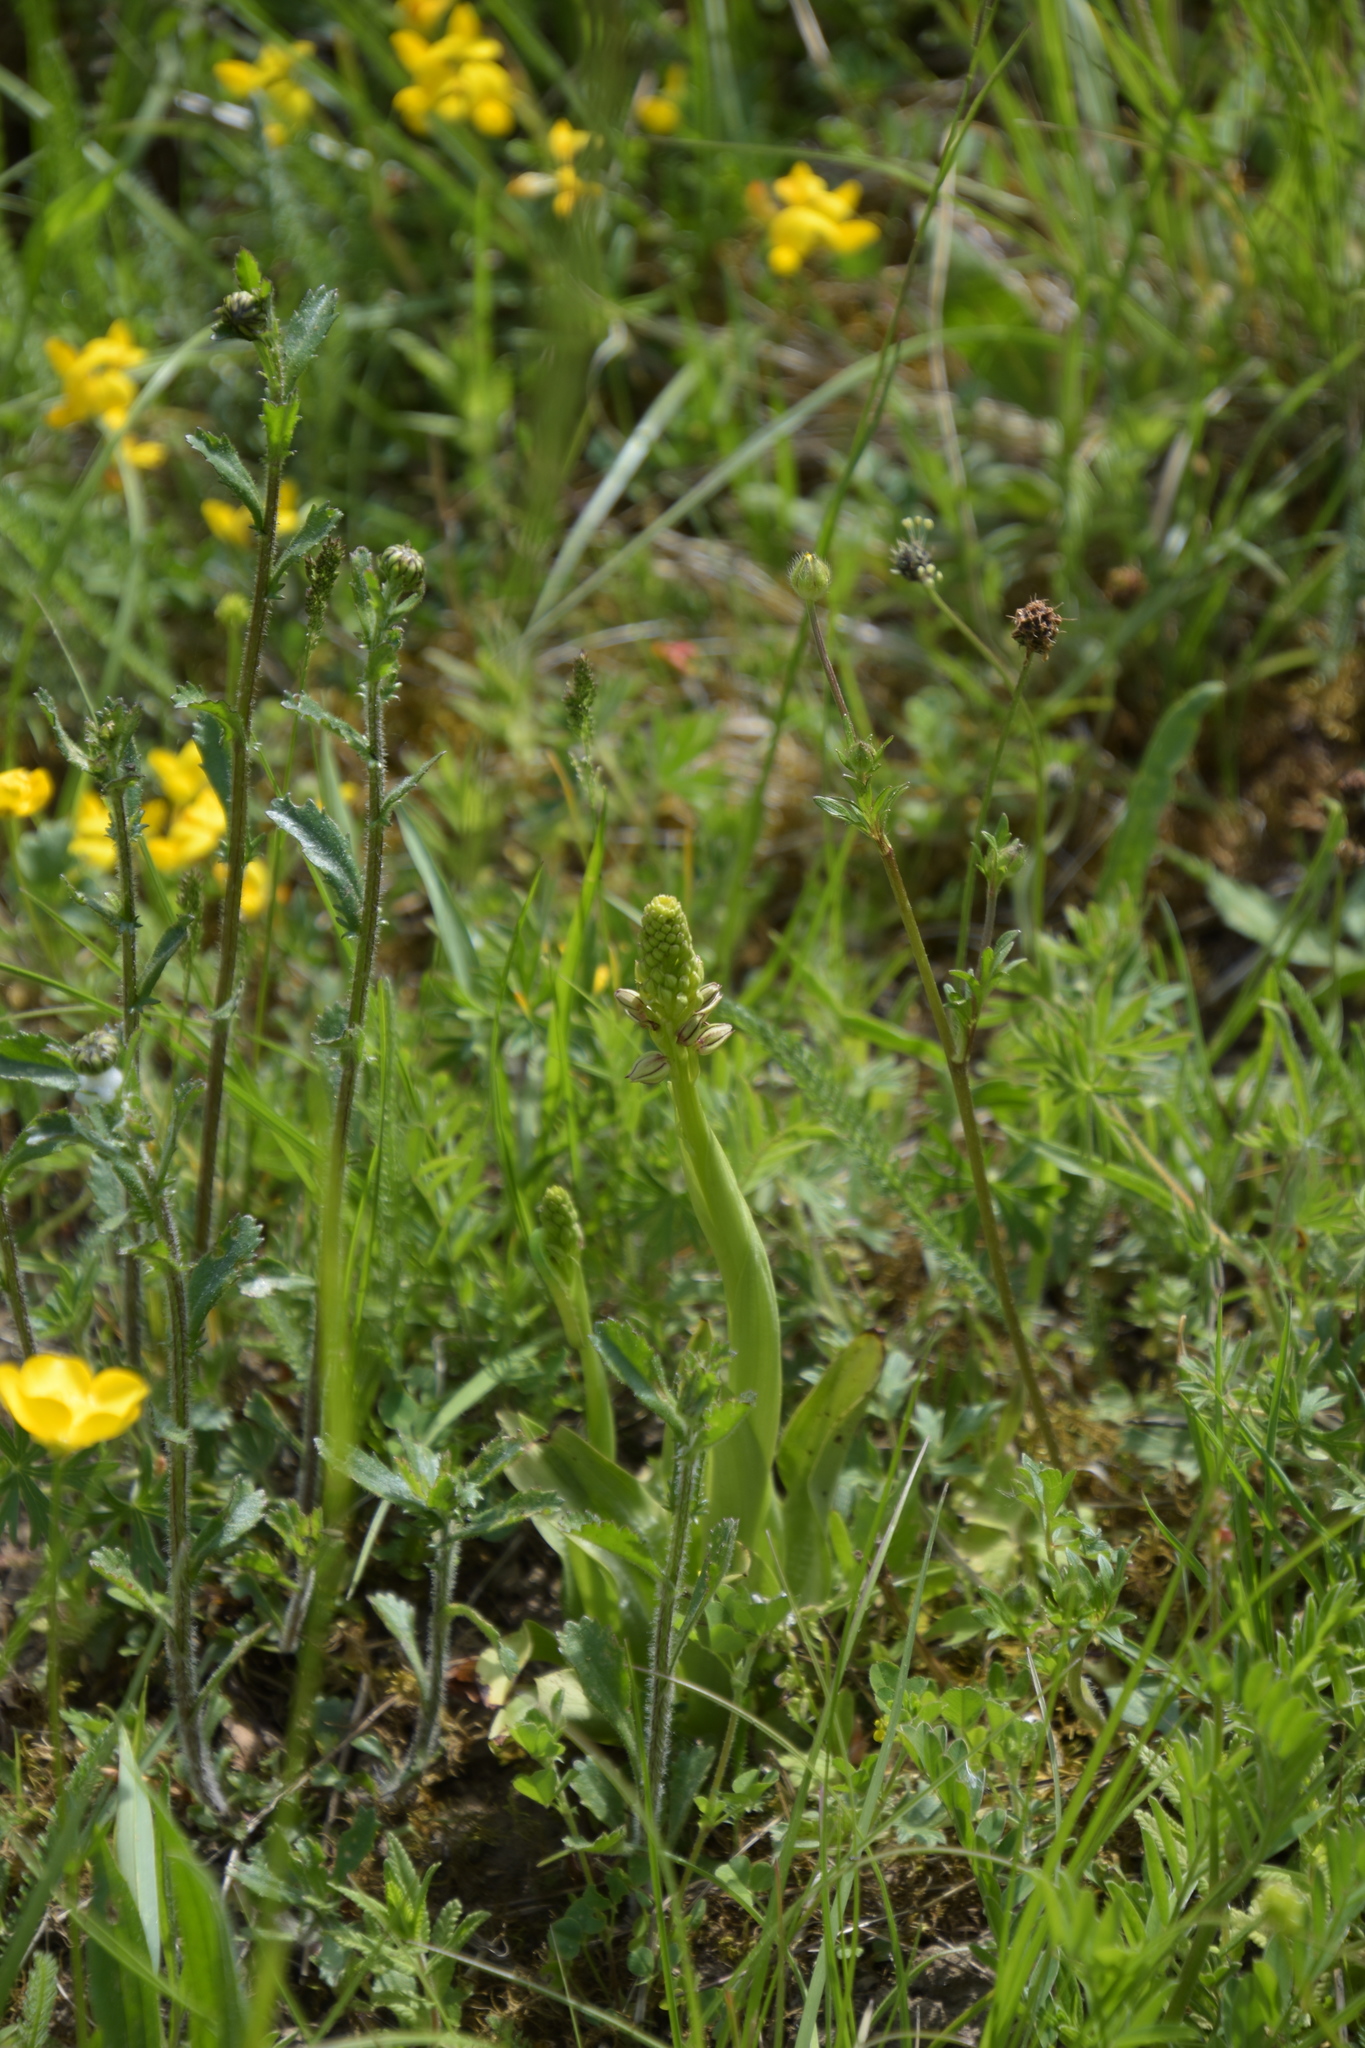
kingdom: Plantae
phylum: Tracheophyta
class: Liliopsida
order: Asparagales
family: Orchidaceae
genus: Orchis
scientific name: Orchis anthropophora
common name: Man orchid
